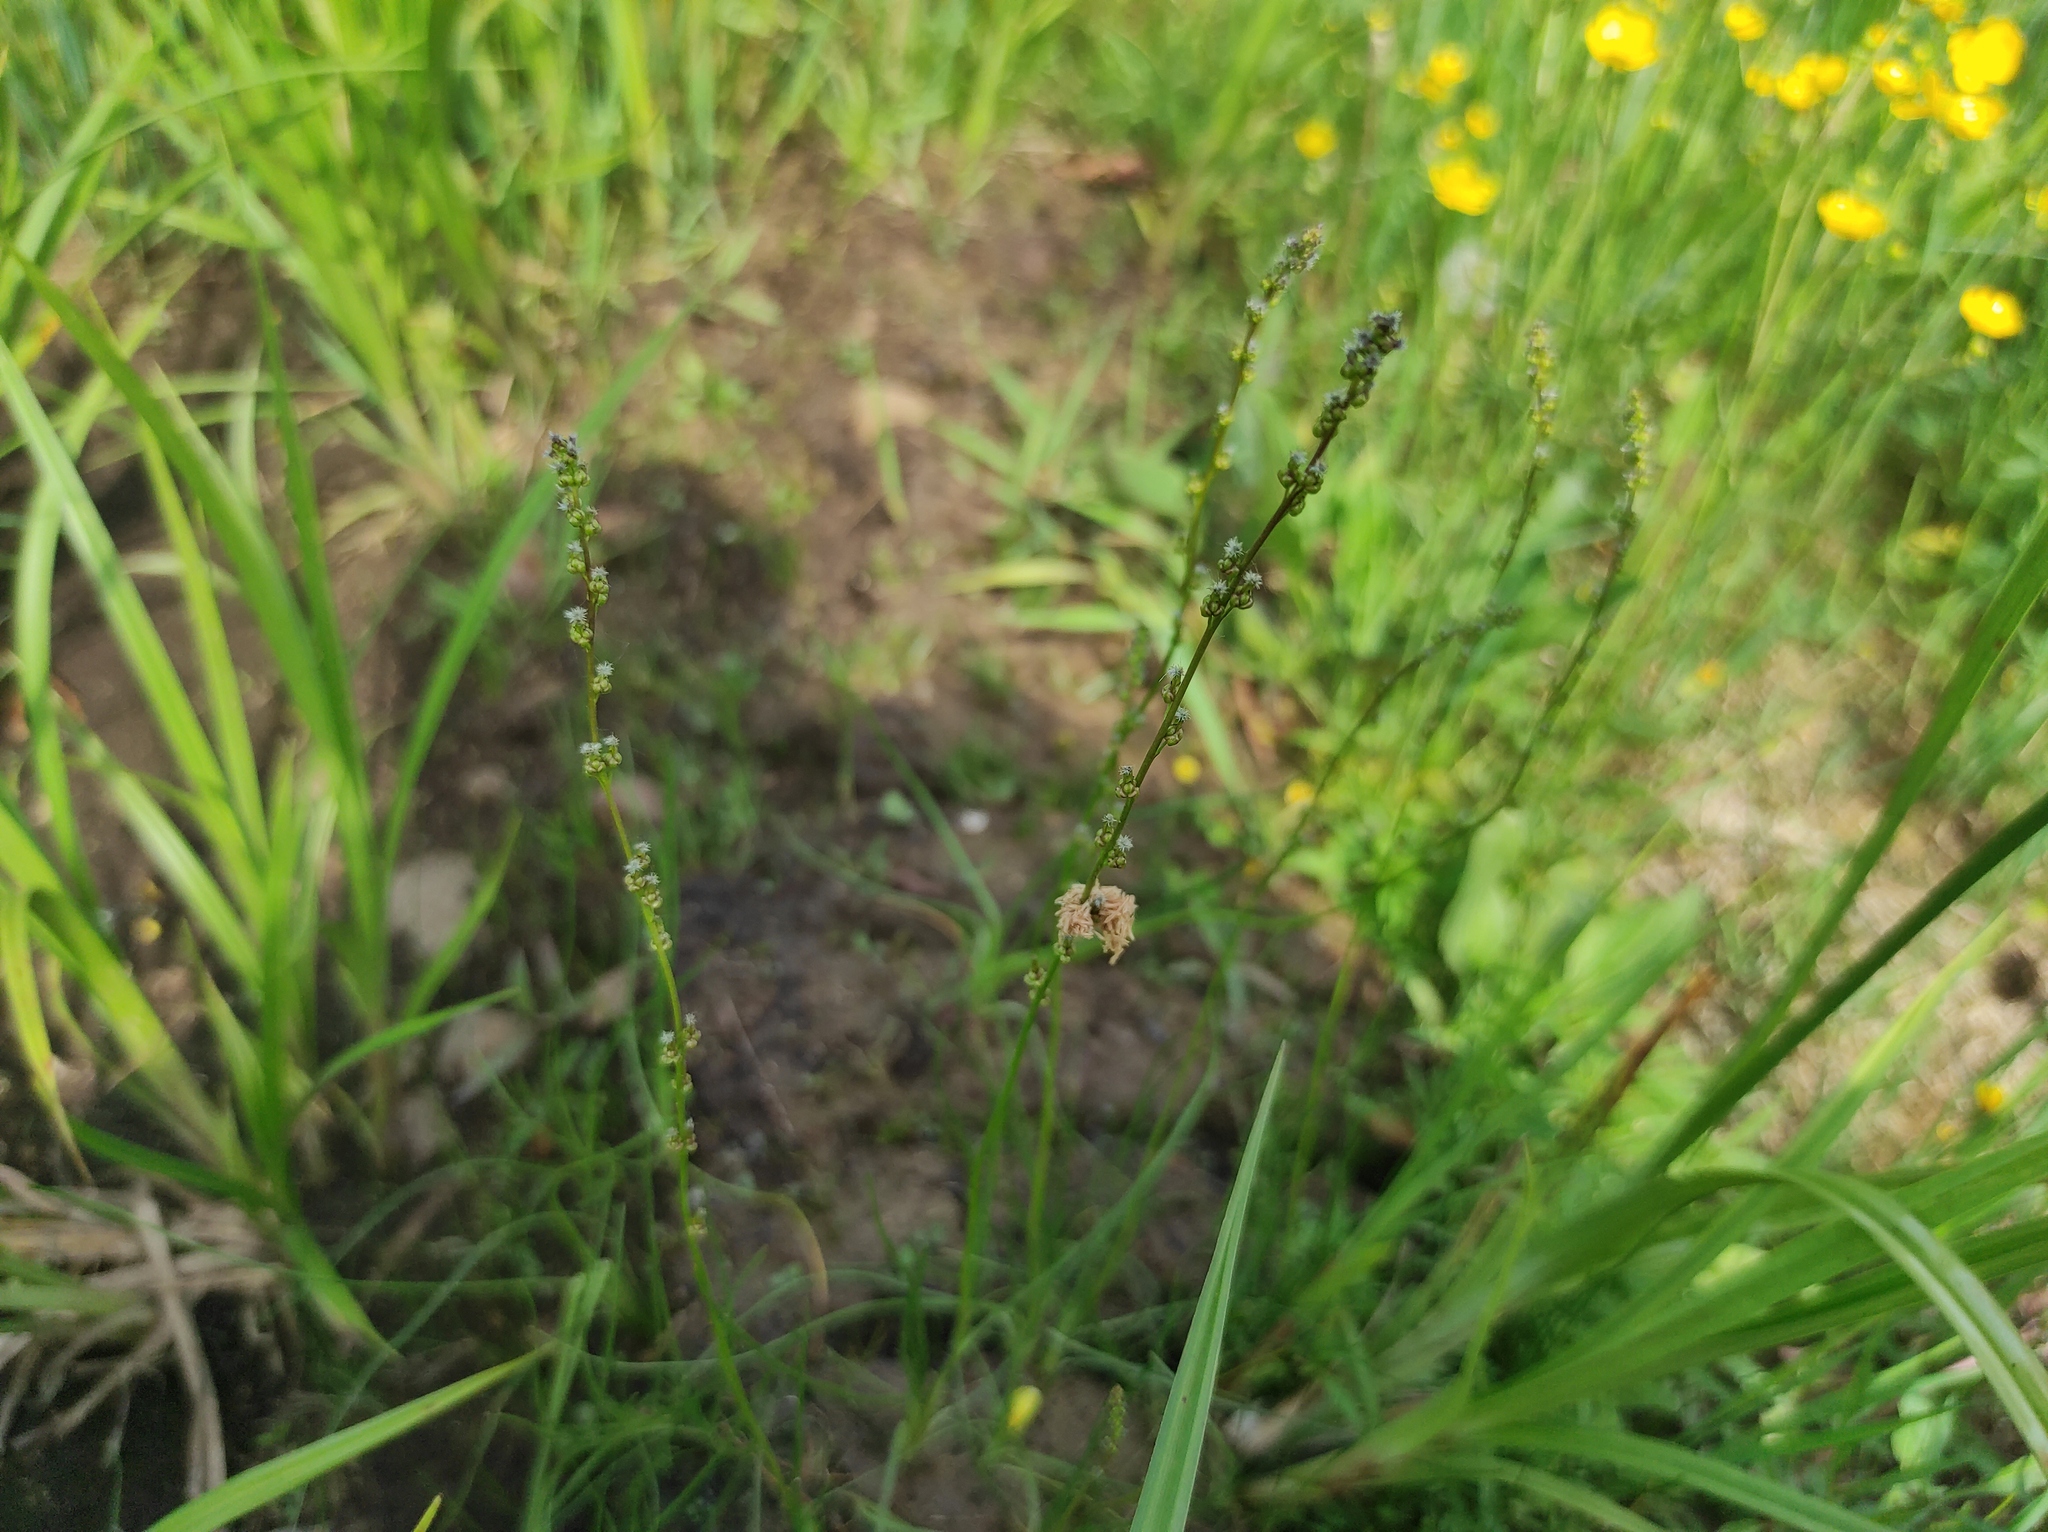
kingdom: Plantae
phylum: Tracheophyta
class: Liliopsida
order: Alismatales
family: Juncaginaceae
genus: Triglochin
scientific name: Triglochin palustris
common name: Marsh arrowgrass
